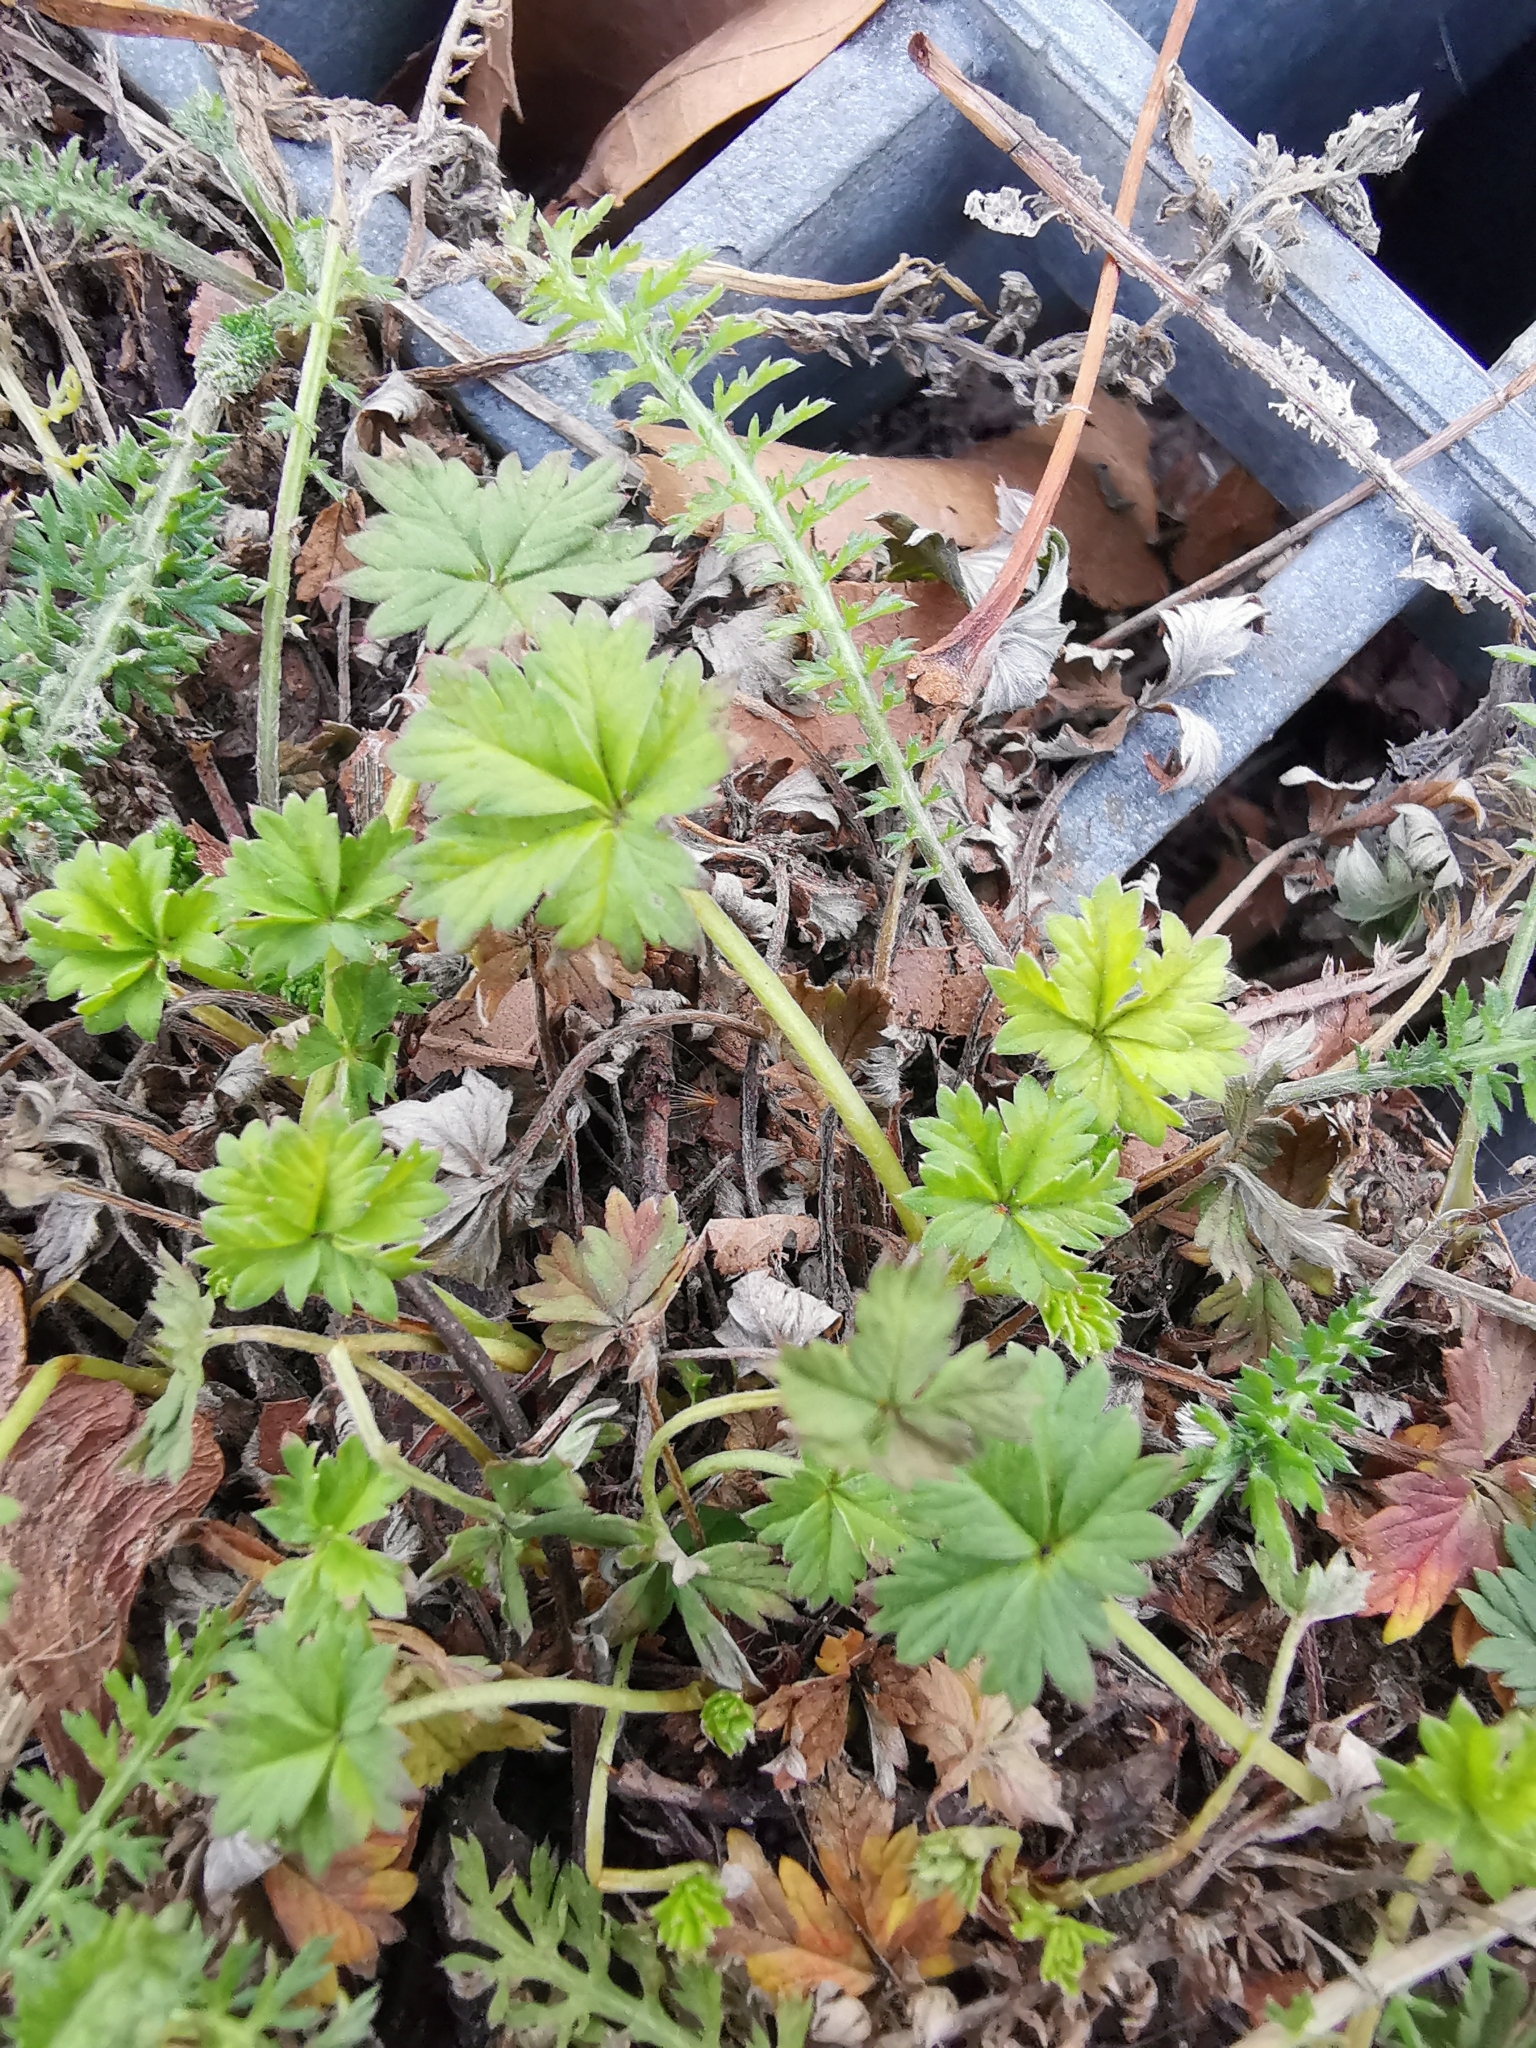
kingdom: Plantae
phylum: Tracheophyta
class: Magnoliopsida
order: Rosales
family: Rosaceae
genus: Potentilla
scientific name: Potentilla argentea
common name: Hoary cinquefoil
